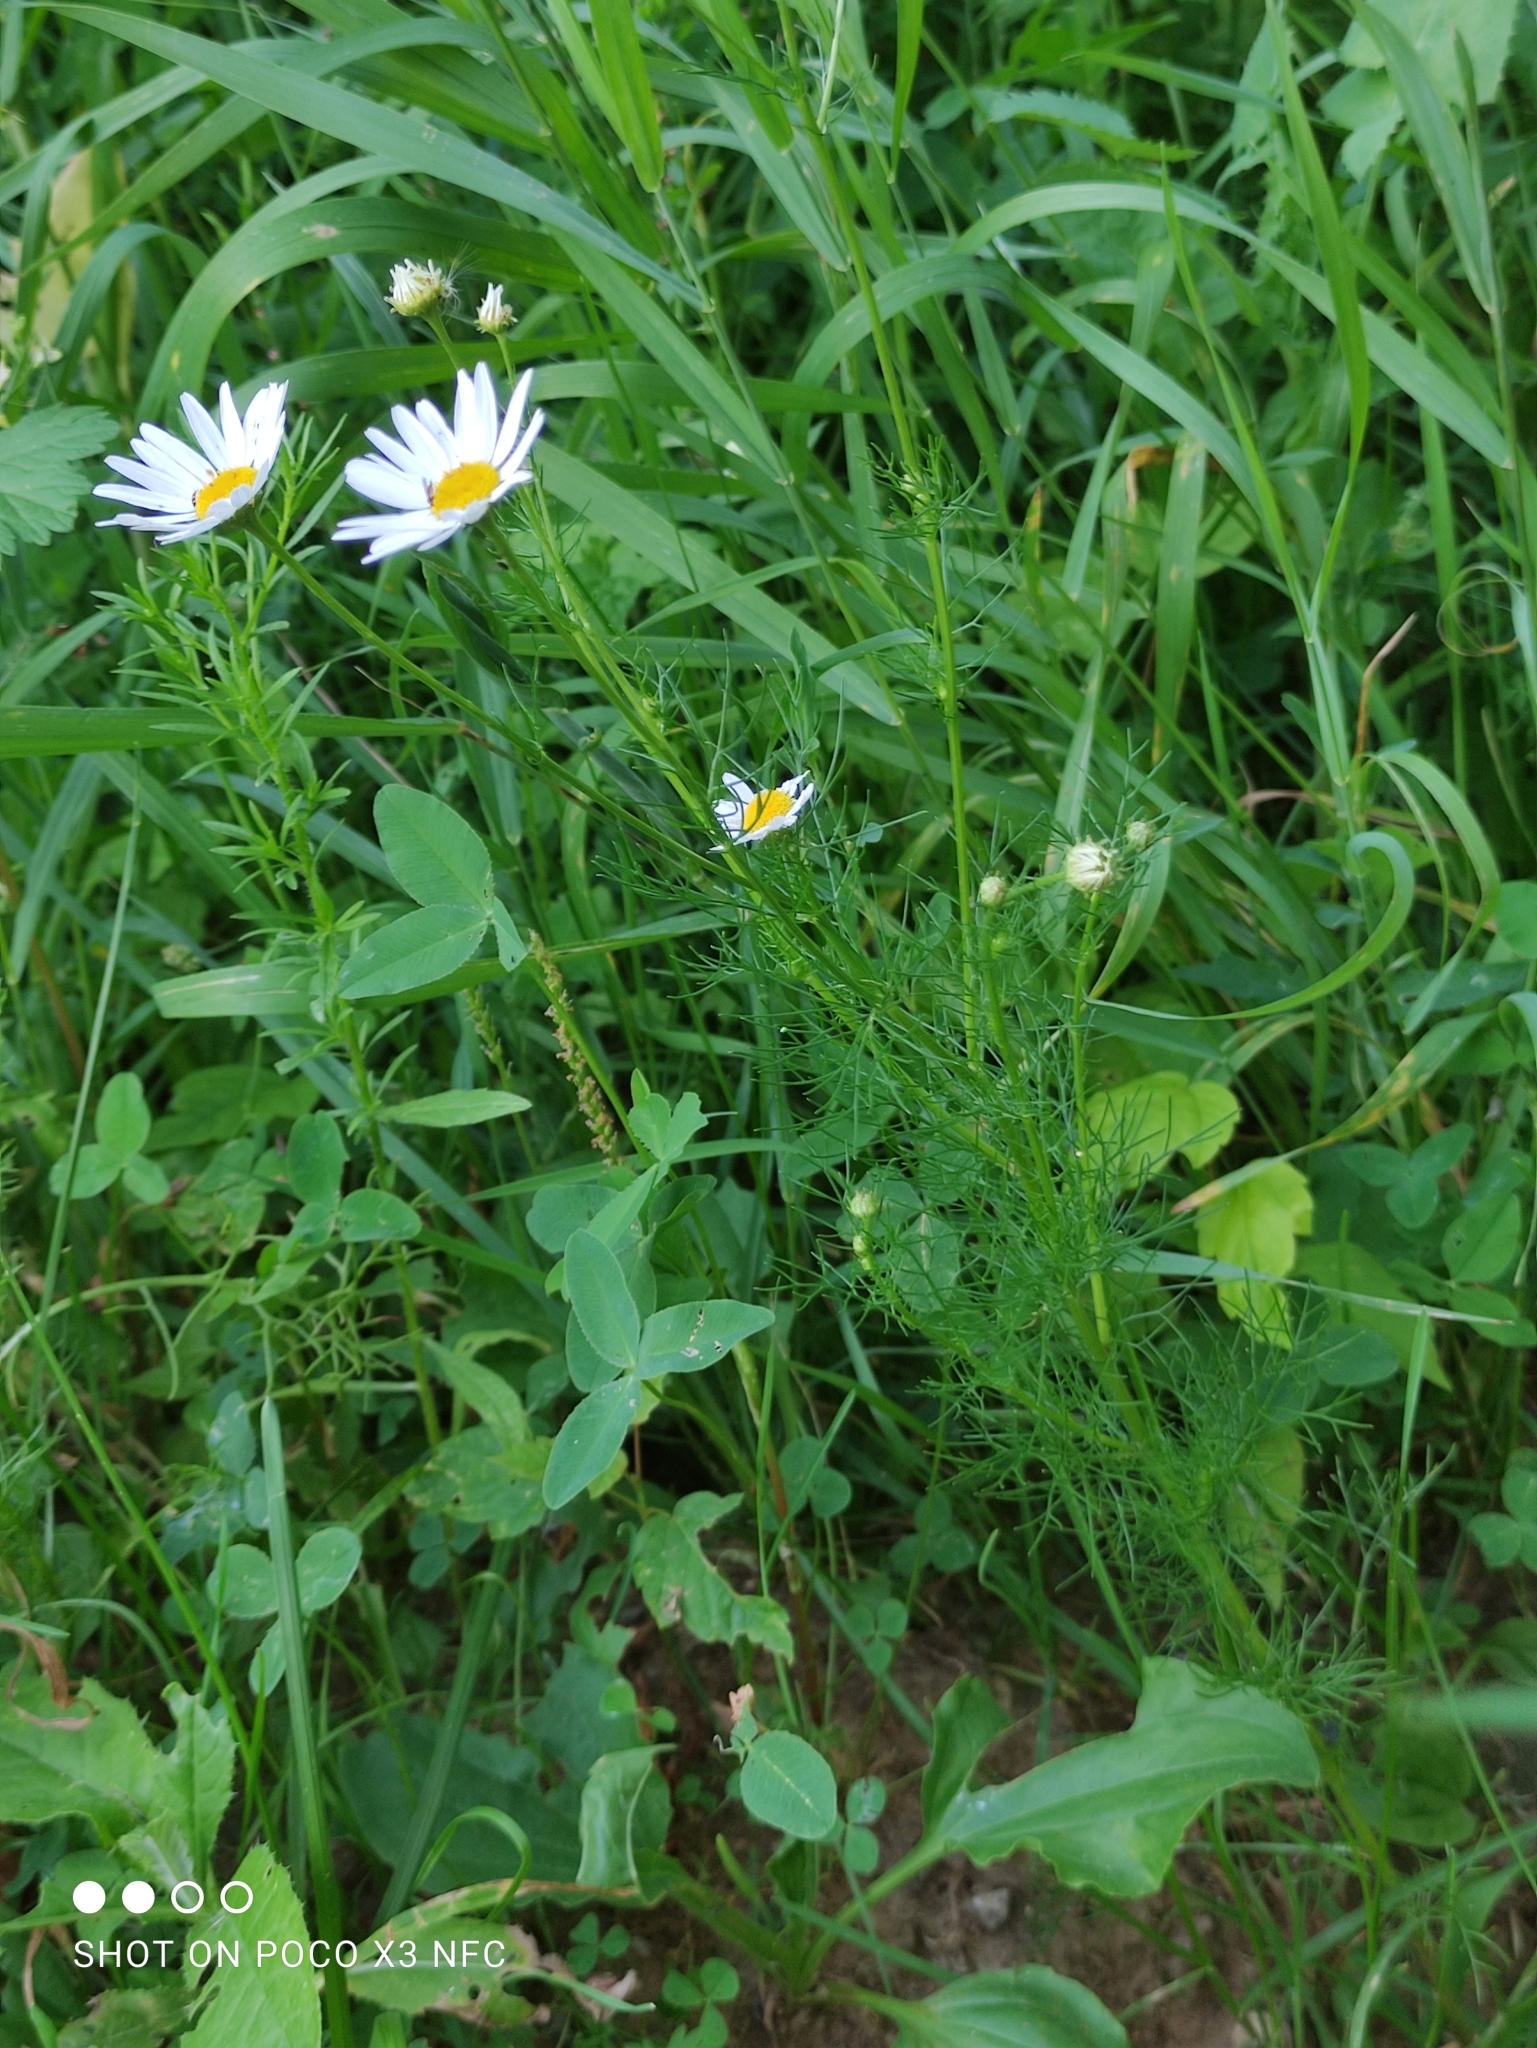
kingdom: Plantae
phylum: Tracheophyta
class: Magnoliopsida
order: Asterales
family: Asteraceae
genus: Tripleurospermum
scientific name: Tripleurospermum inodorum
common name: Scentless mayweed
